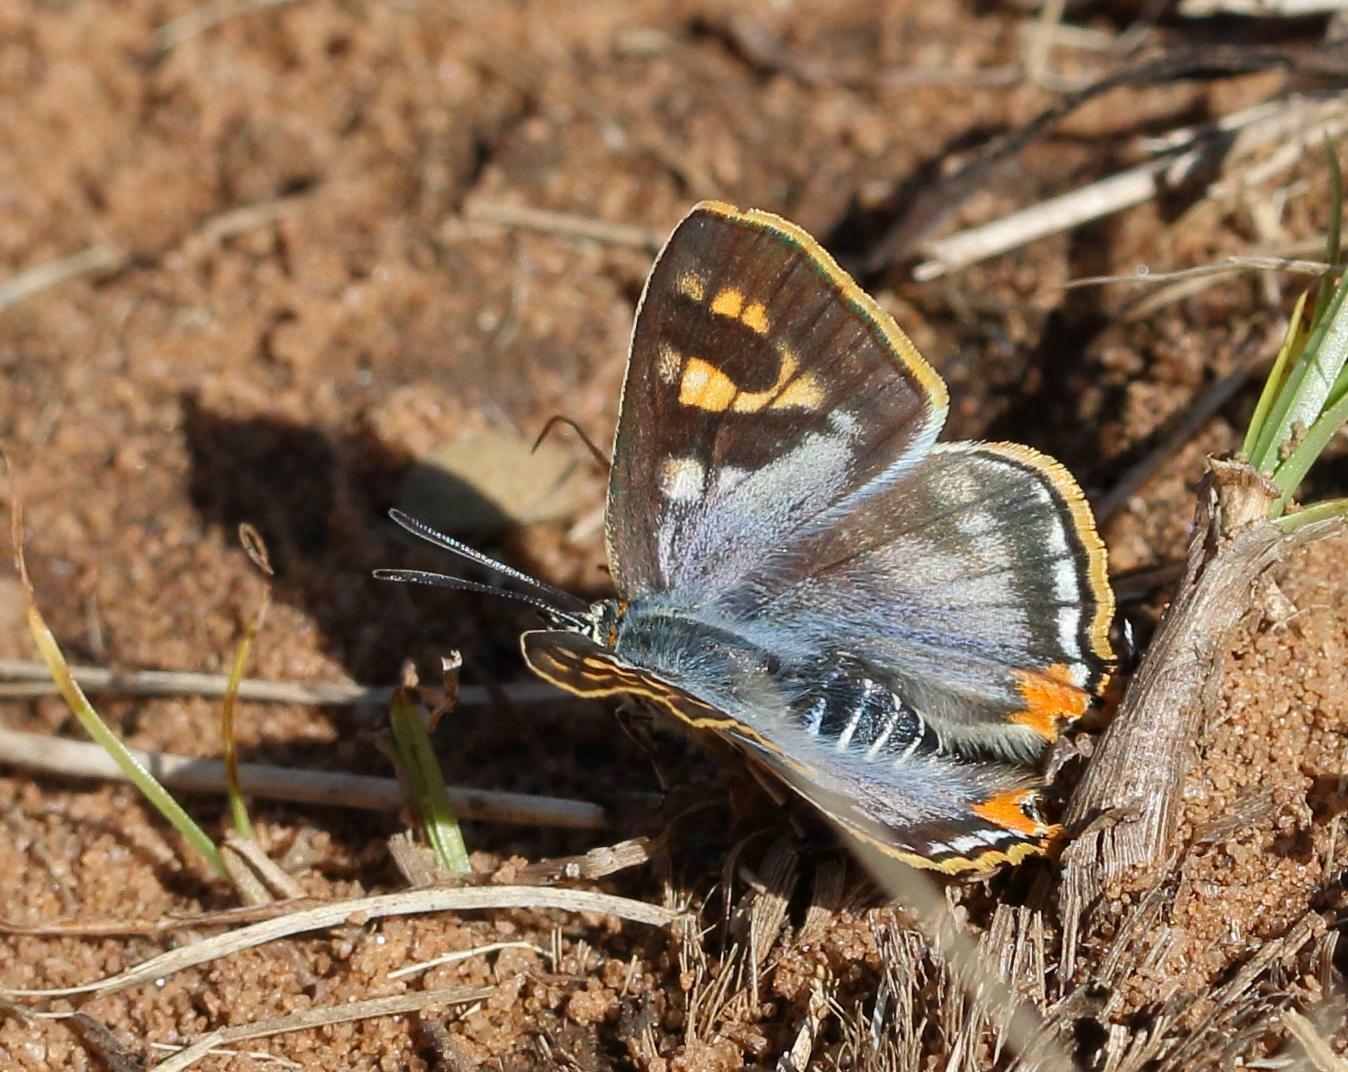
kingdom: Animalia
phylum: Arthropoda
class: Insecta
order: Lepidoptera
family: Lycaenidae
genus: Cigaritis
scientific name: Cigaritis mozambica
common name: Mozambique bar
